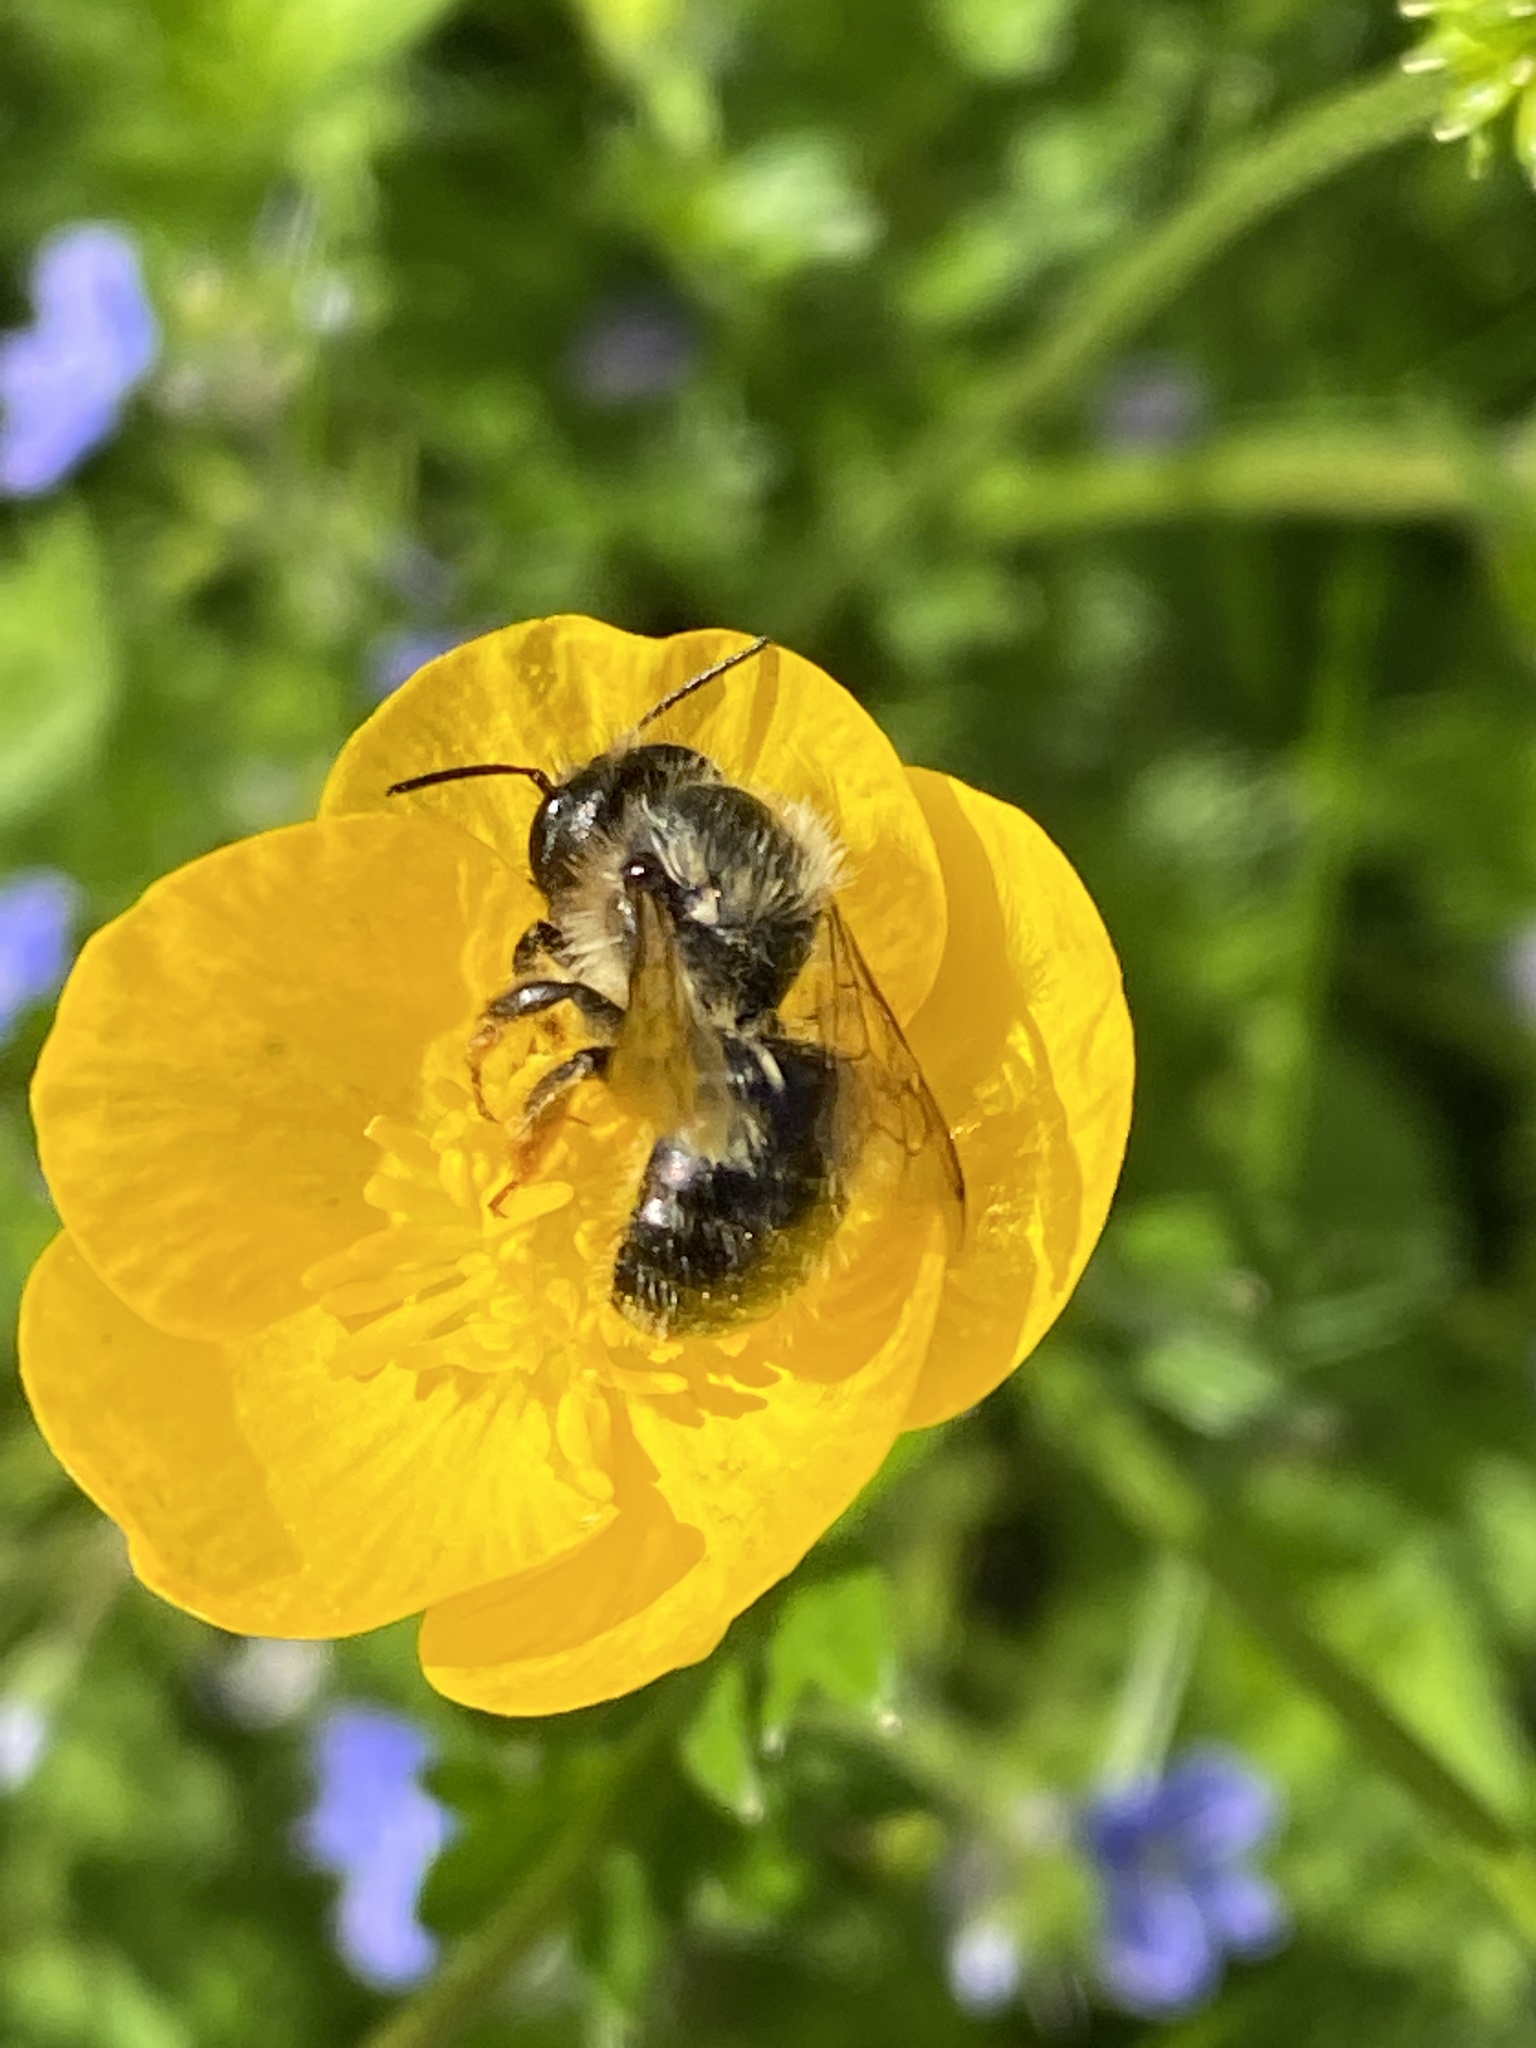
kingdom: Animalia
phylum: Arthropoda
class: Insecta
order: Hymenoptera
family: Megachilidae
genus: Osmia
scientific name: Osmia bicornis
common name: Red mason bee
